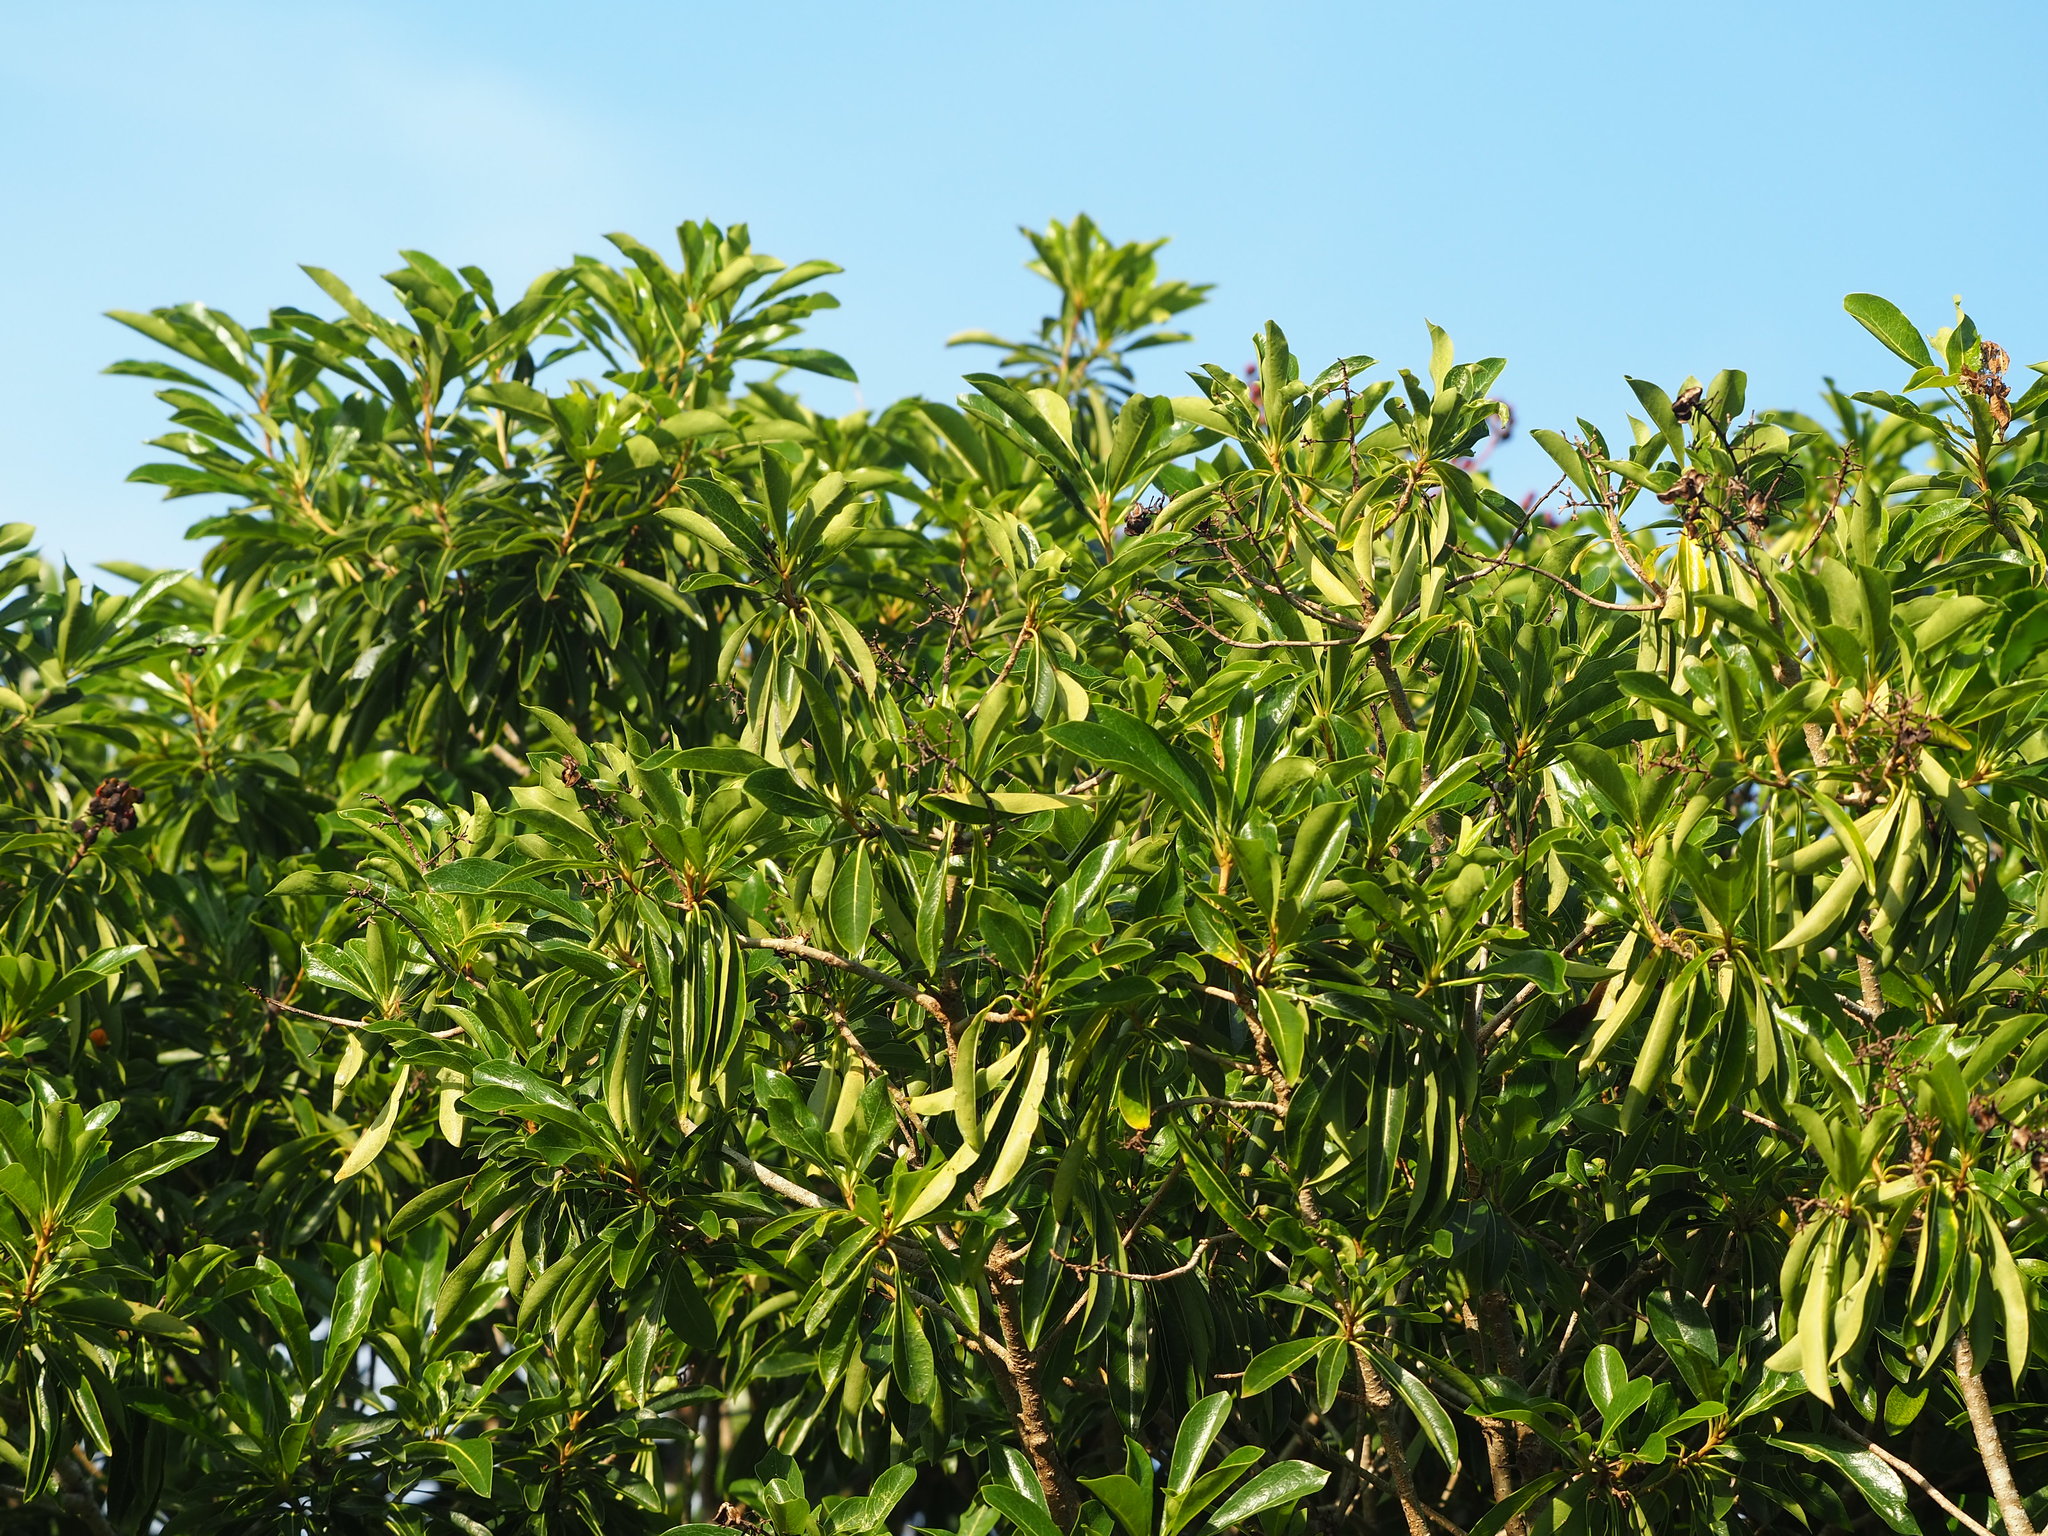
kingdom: Plantae
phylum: Tracheophyta
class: Magnoliopsida
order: Apiales
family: Pittosporaceae
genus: Pittosporum
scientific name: Pittosporum pentandrum
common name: Taiwanese cheesewood
